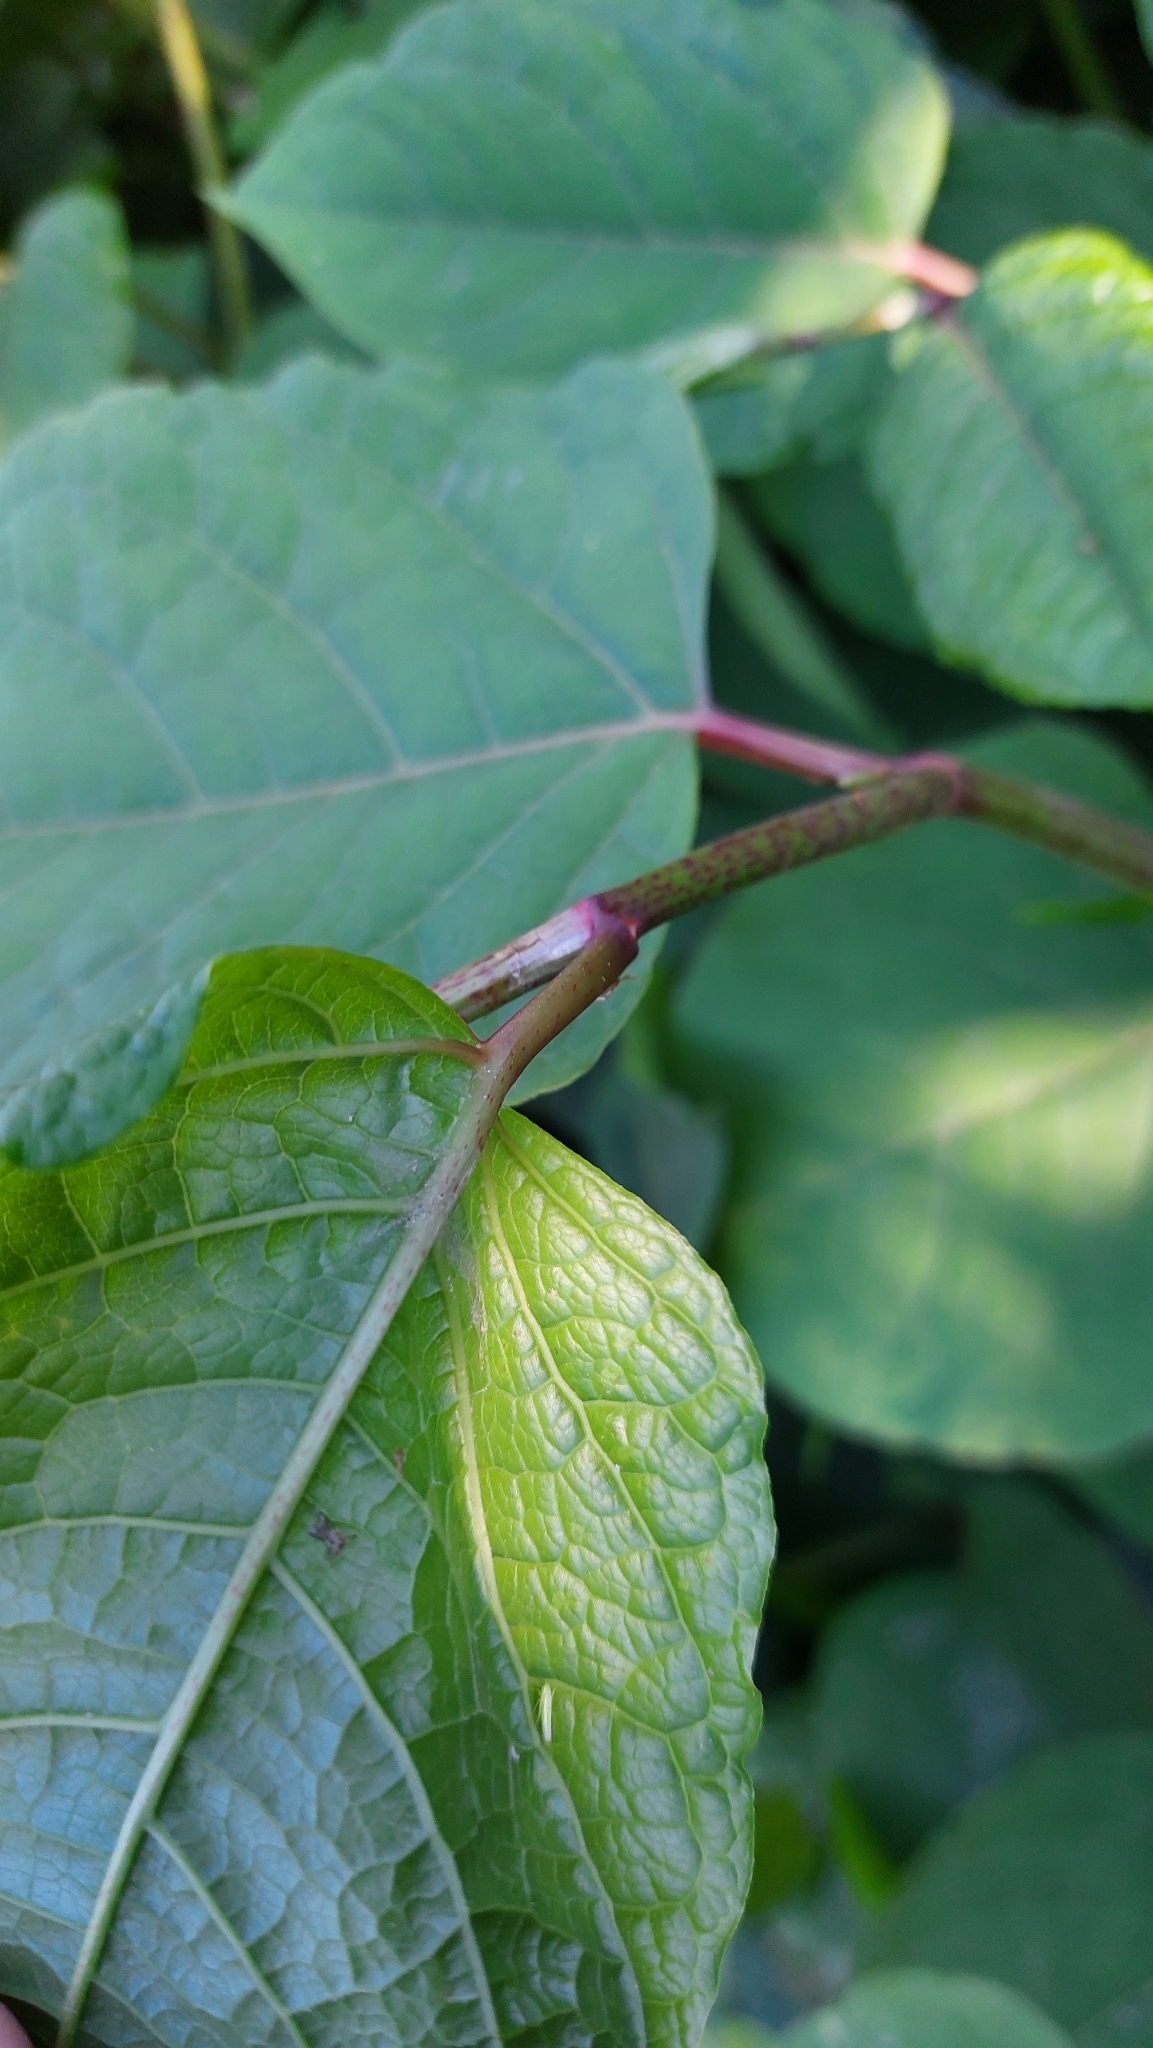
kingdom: Plantae
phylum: Tracheophyta
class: Magnoliopsida
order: Caryophyllales
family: Polygonaceae
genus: Reynoutria
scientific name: Reynoutria japonica
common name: Japanese knotweed
